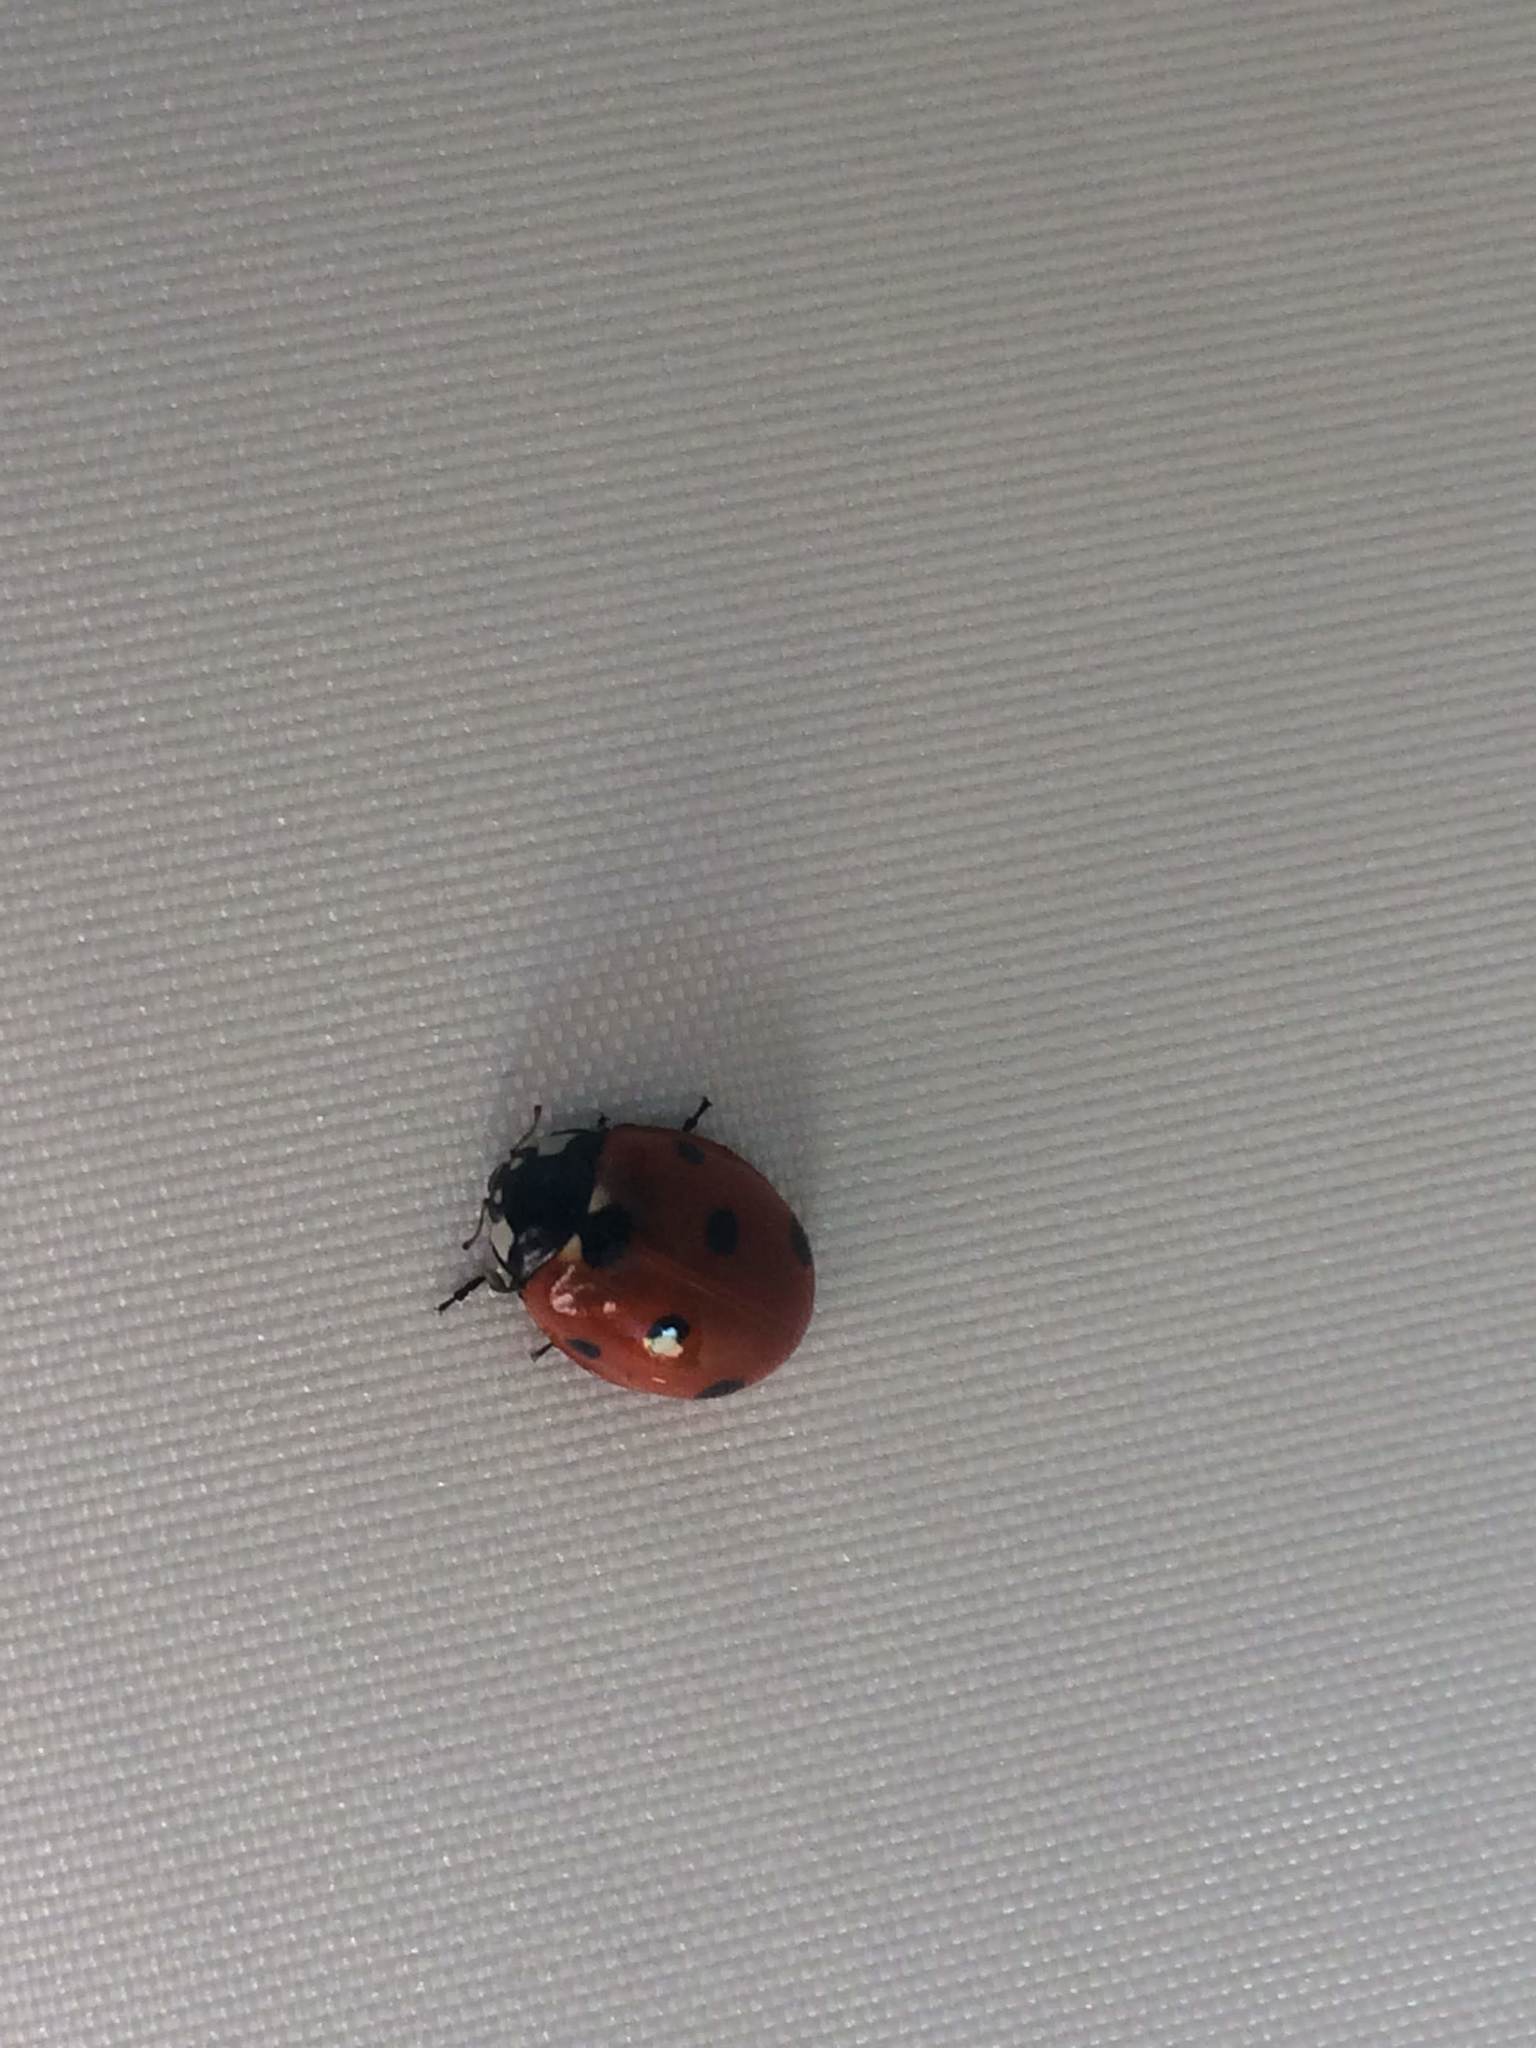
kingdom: Animalia
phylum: Arthropoda
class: Insecta
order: Coleoptera
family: Coccinellidae
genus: Coccinella
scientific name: Coccinella septempunctata
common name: Sevenspotted lady beetle
